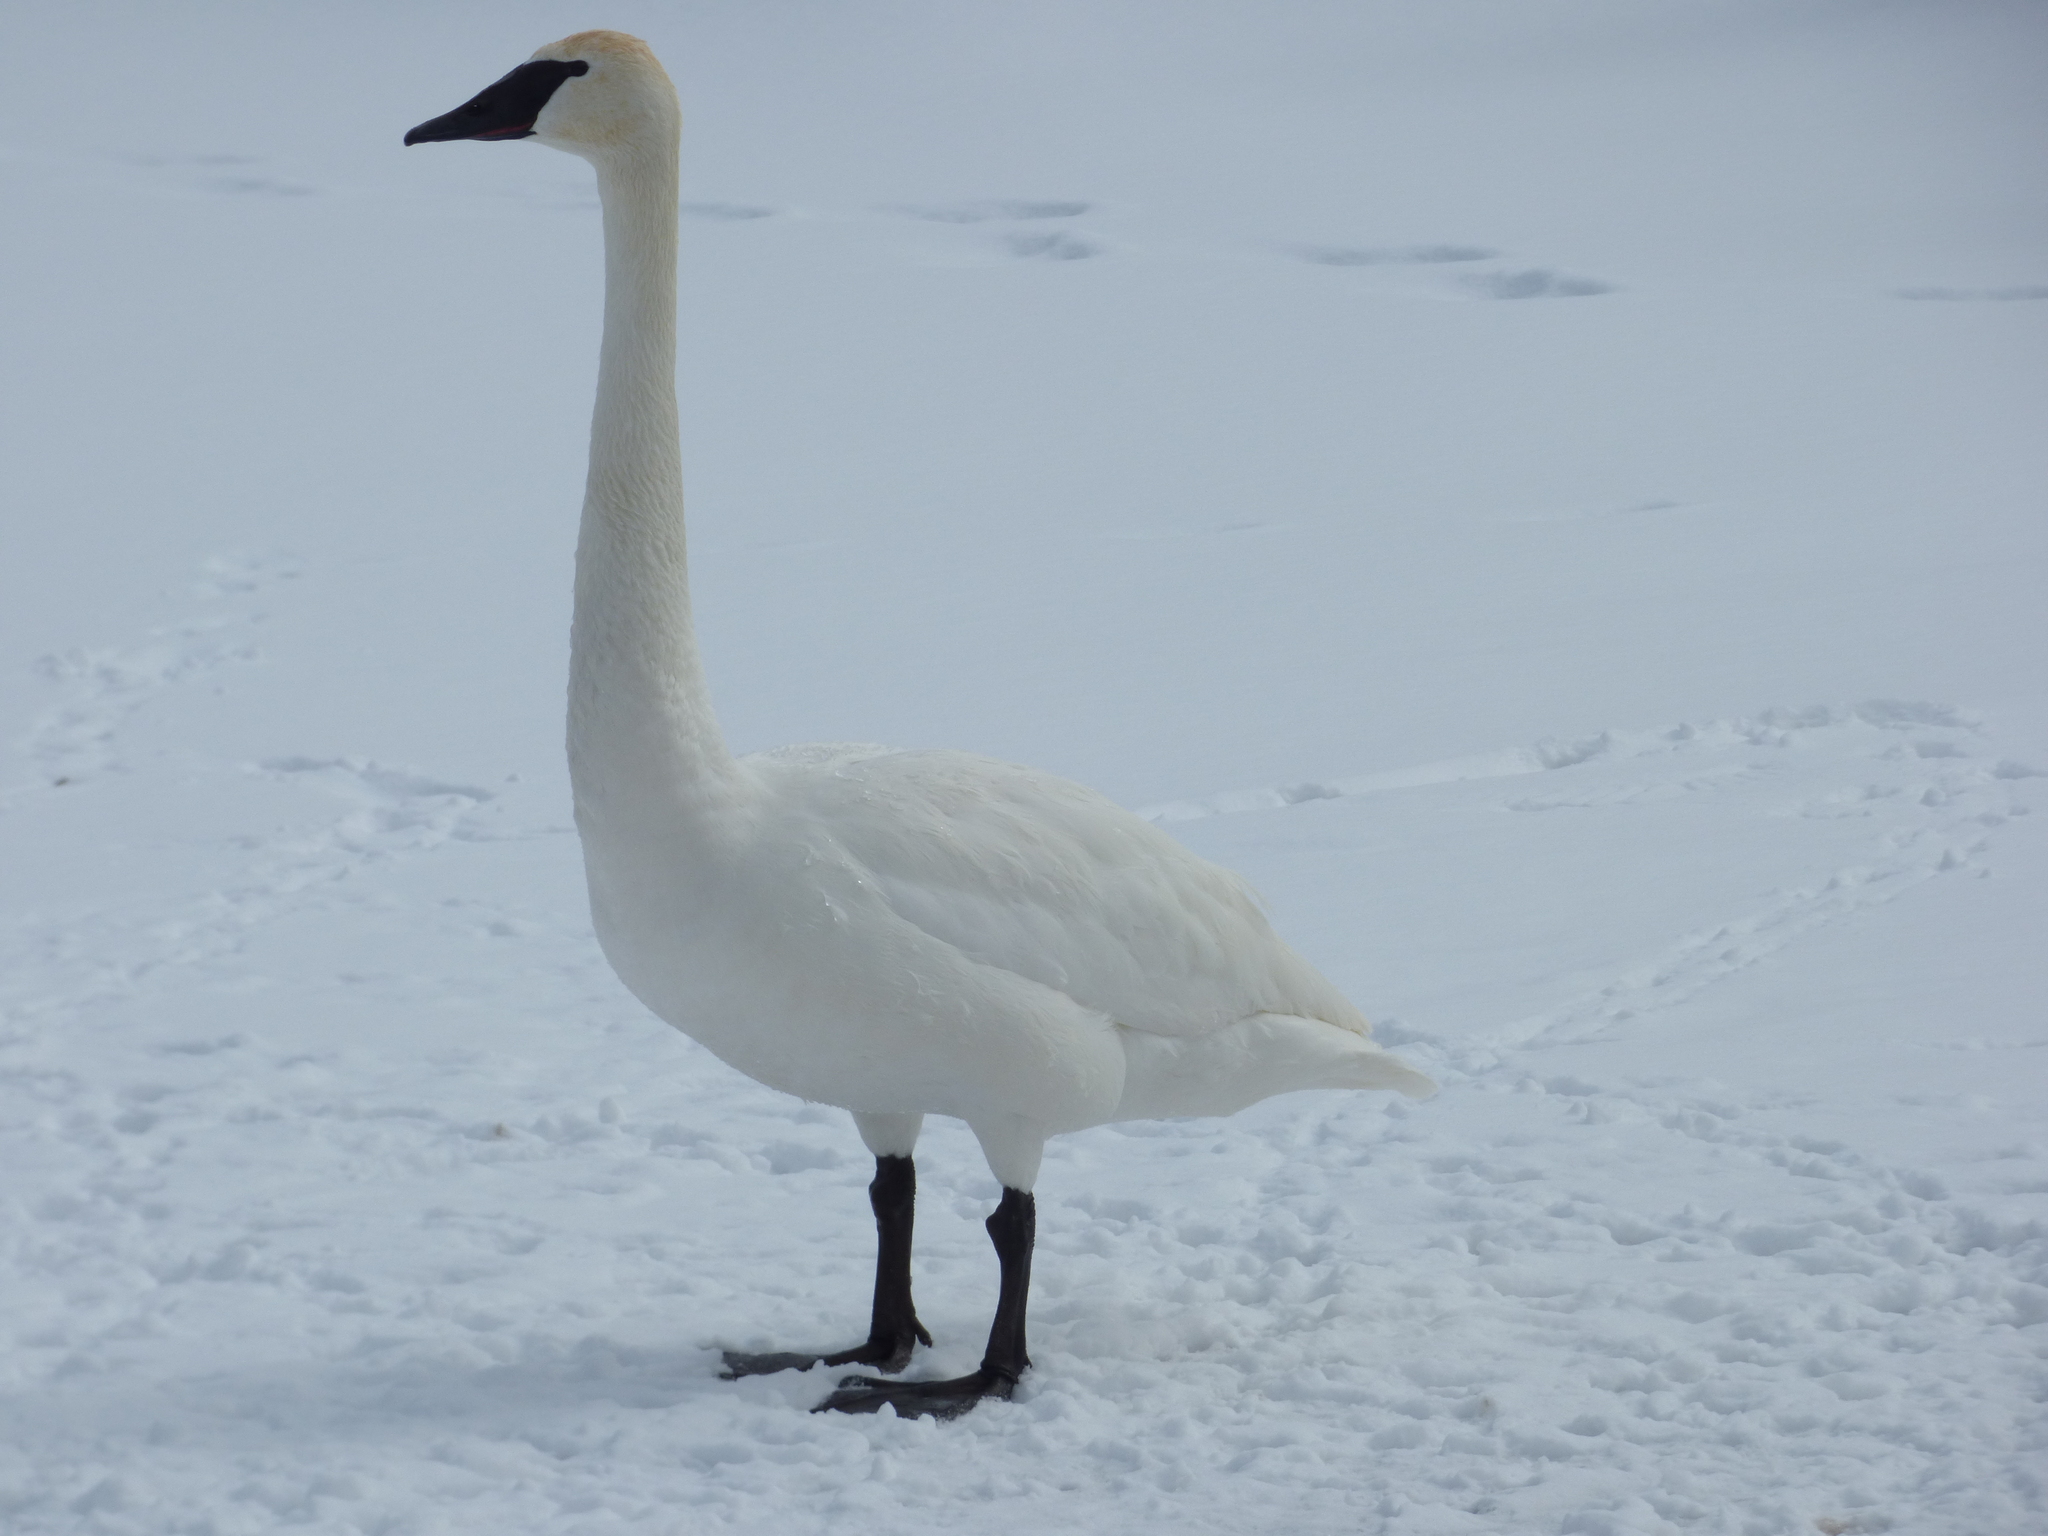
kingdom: Animalia
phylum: Chordata
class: Aves
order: Anseriformes
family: Anatidae
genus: Cygnus
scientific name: Cygnus buccinator
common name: Trumpeter swan
